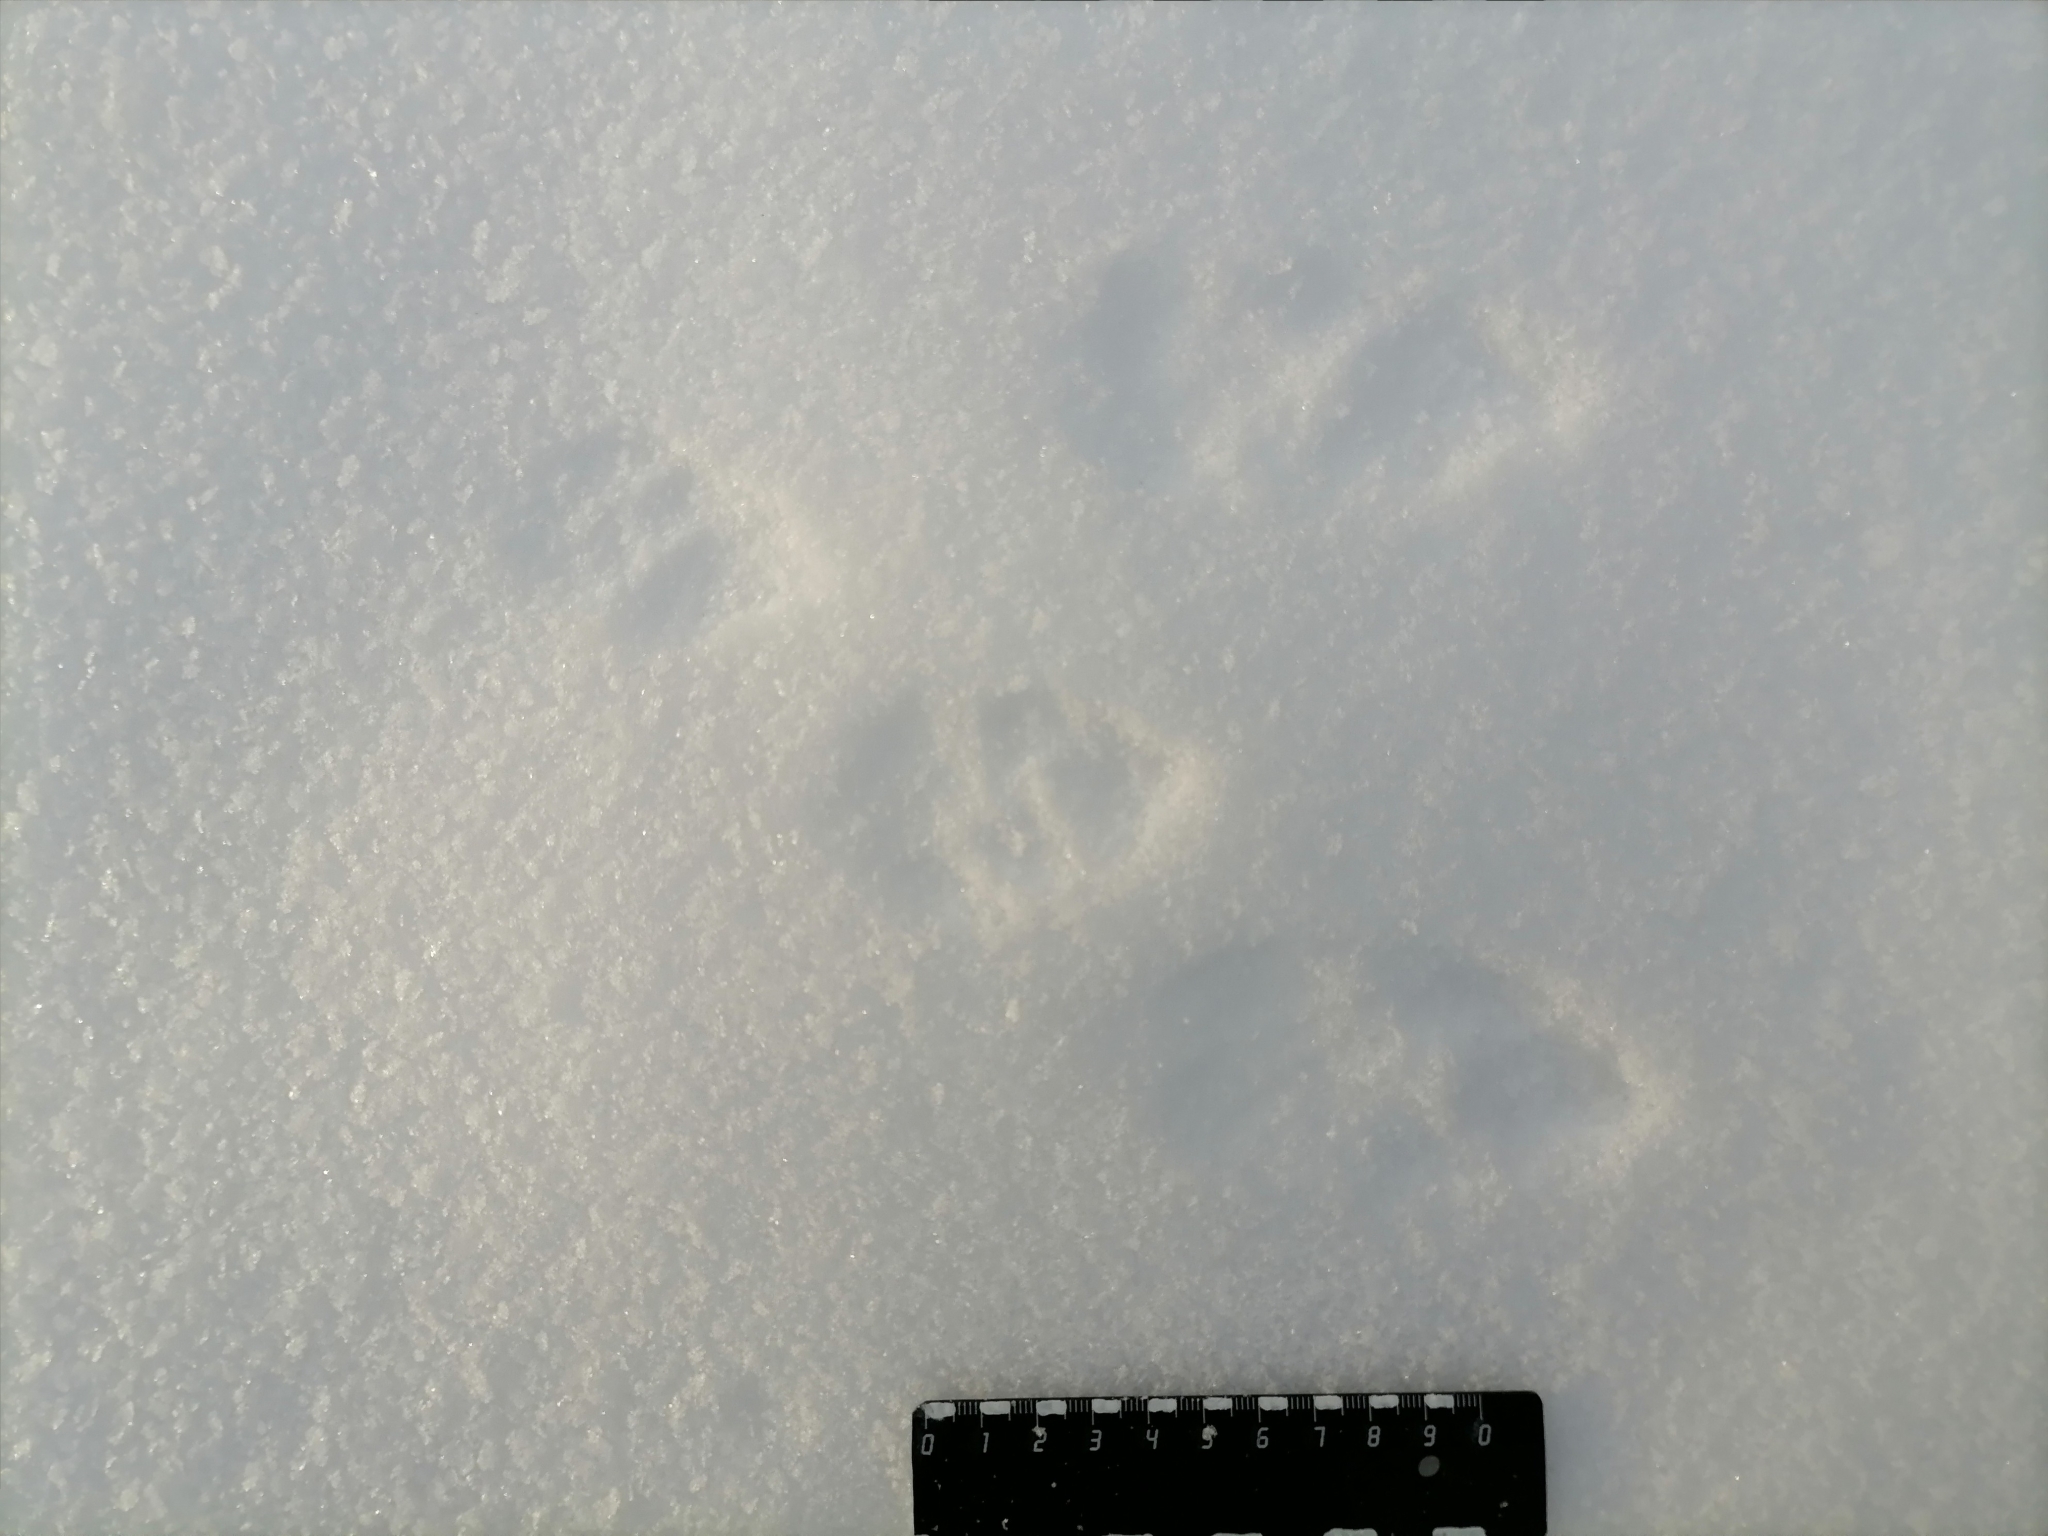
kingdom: Animalia
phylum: Chordata
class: Mammalia
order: Lagomorpha
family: Leporidae
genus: Lepus
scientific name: Lepus
